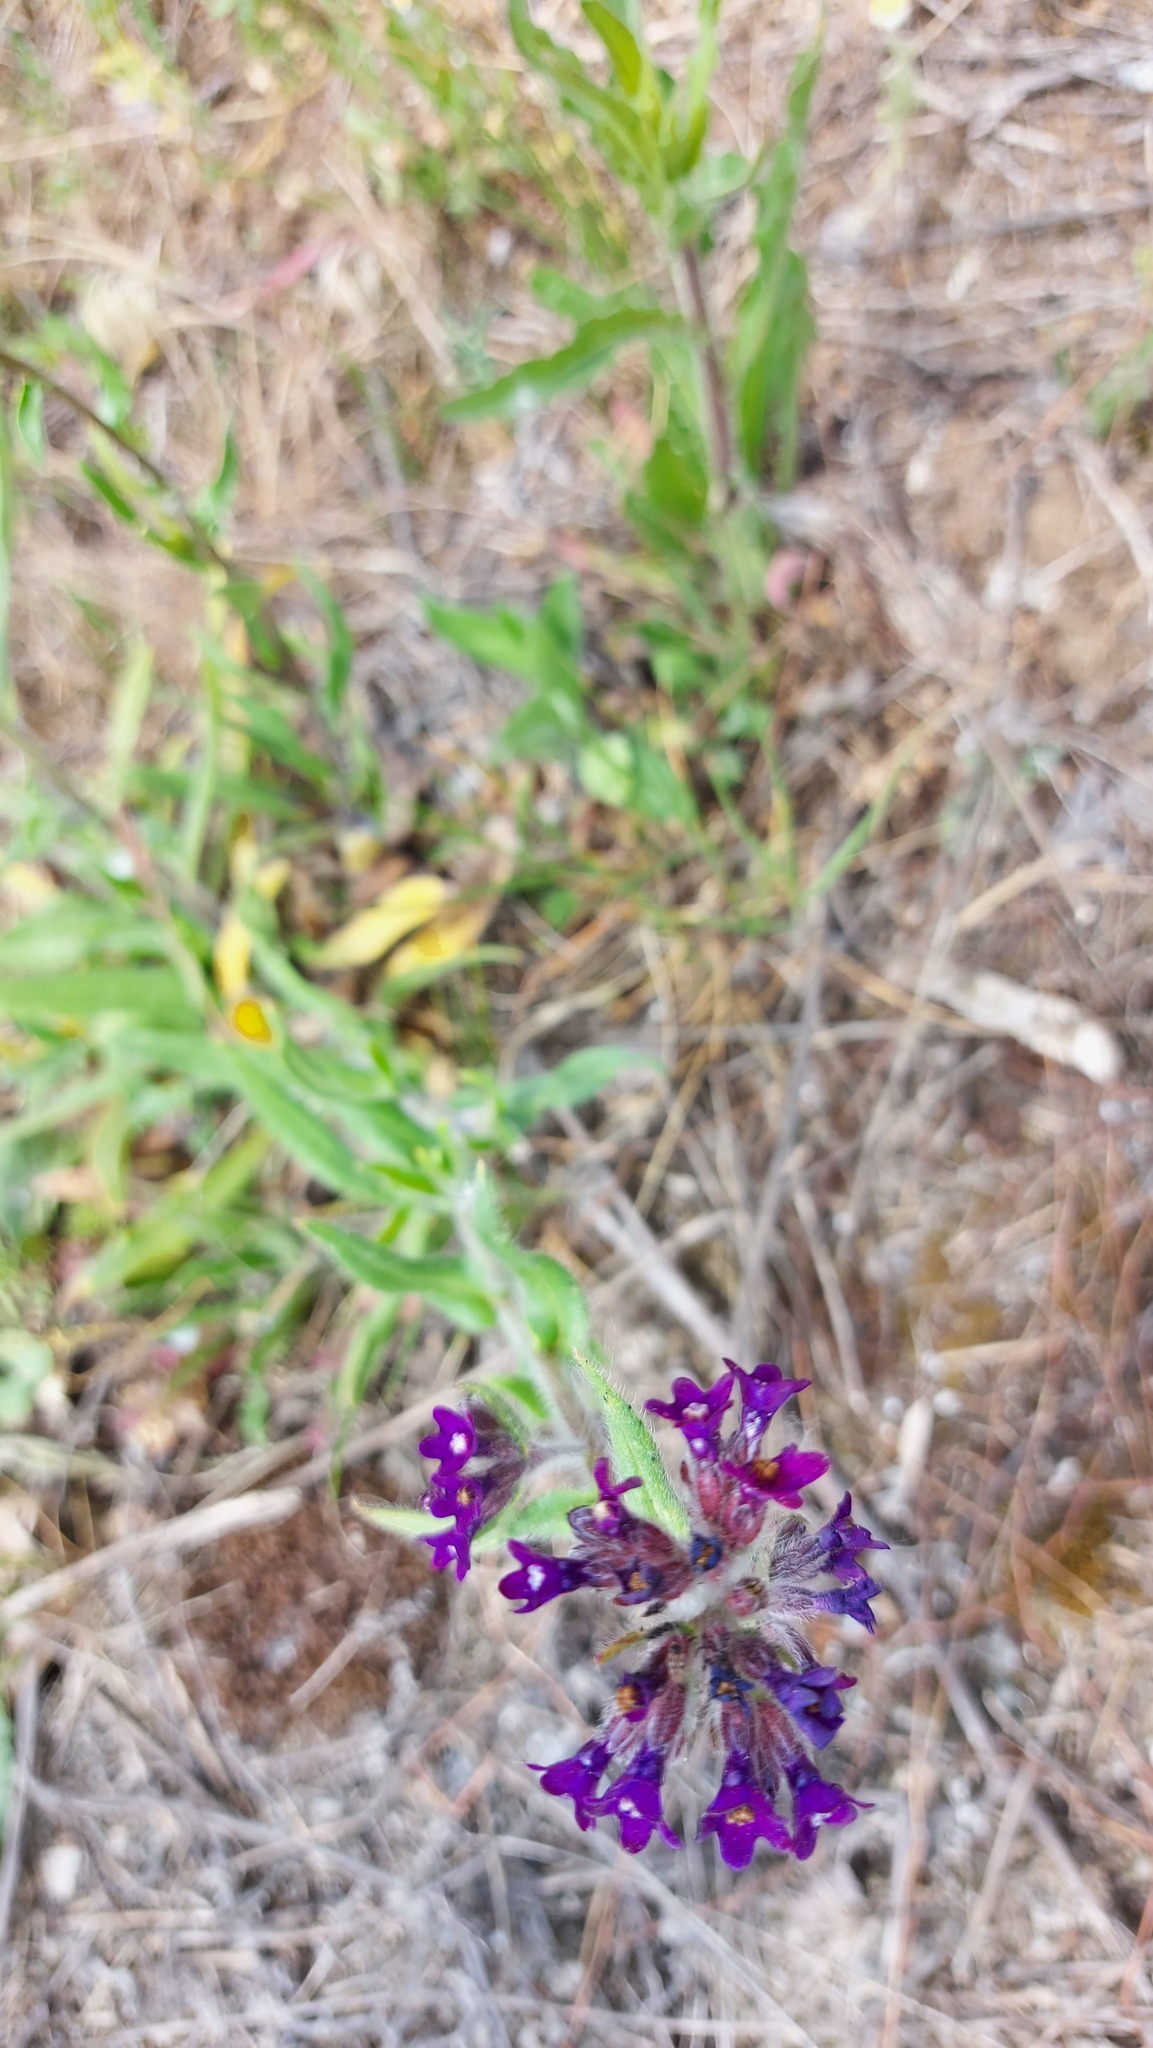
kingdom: Plantae
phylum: Tracheophyta
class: Magnoliopsida
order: Boraginales
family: Boraginaceae
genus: Anchusa
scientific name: Anchusa officinalis
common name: Alkanet
